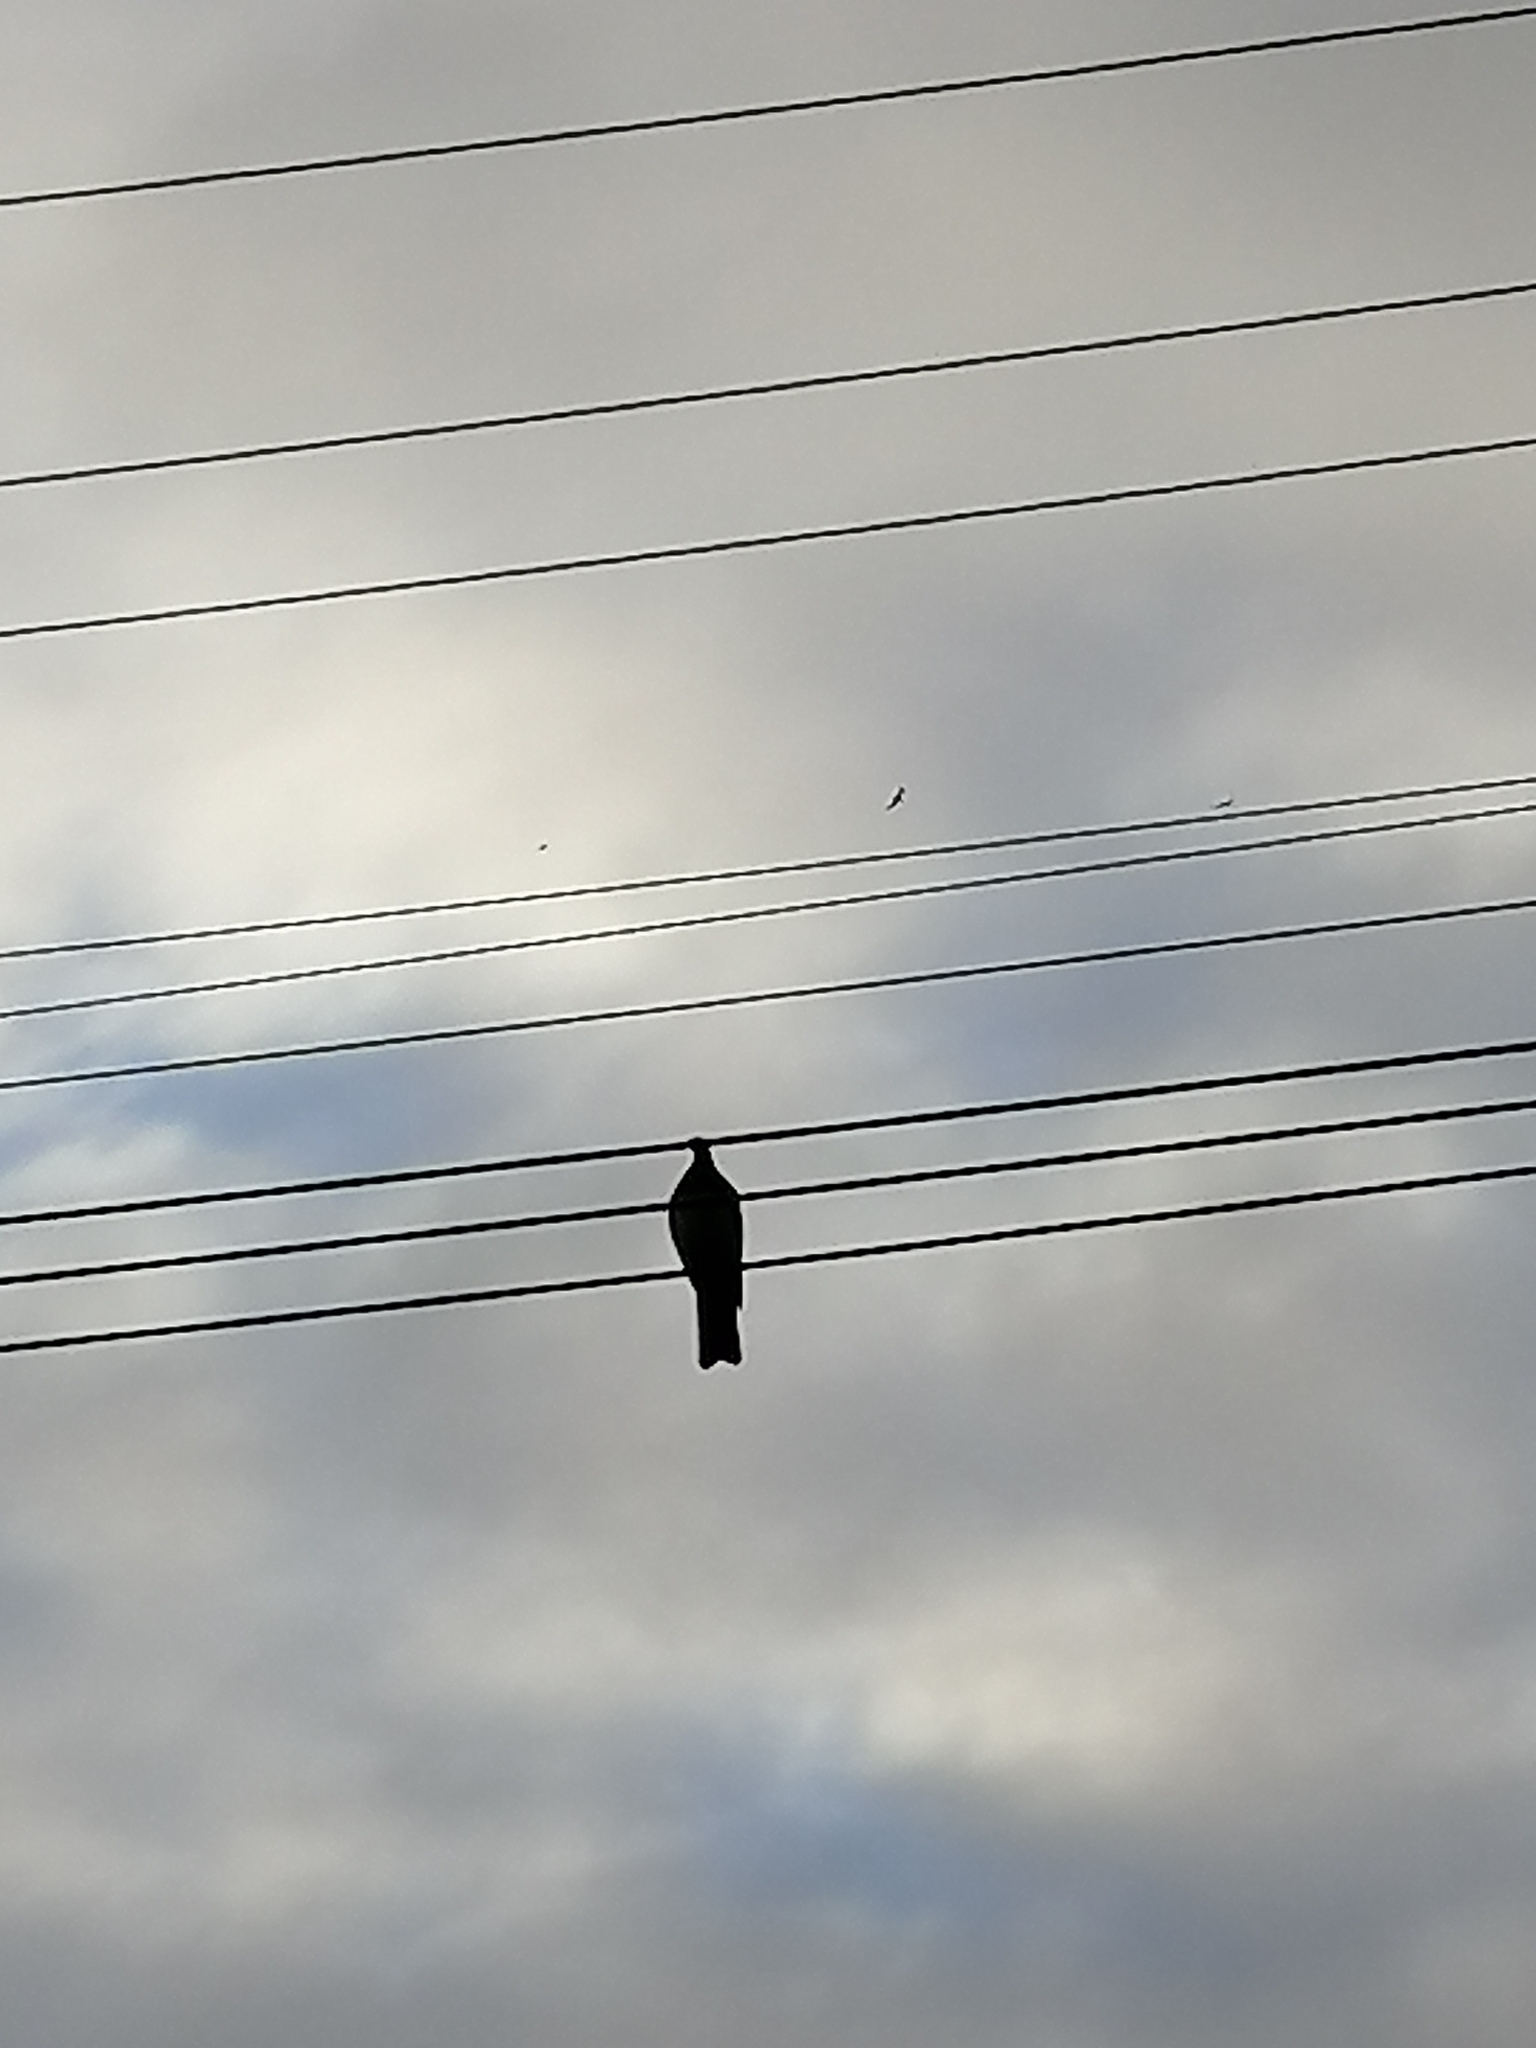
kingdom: Animalia
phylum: Chordata
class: Aves
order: Columbiformes
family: Columbidae
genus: Hemiphaga
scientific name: Hemiphaga novaeseelandiae
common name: New zealand pigeon
